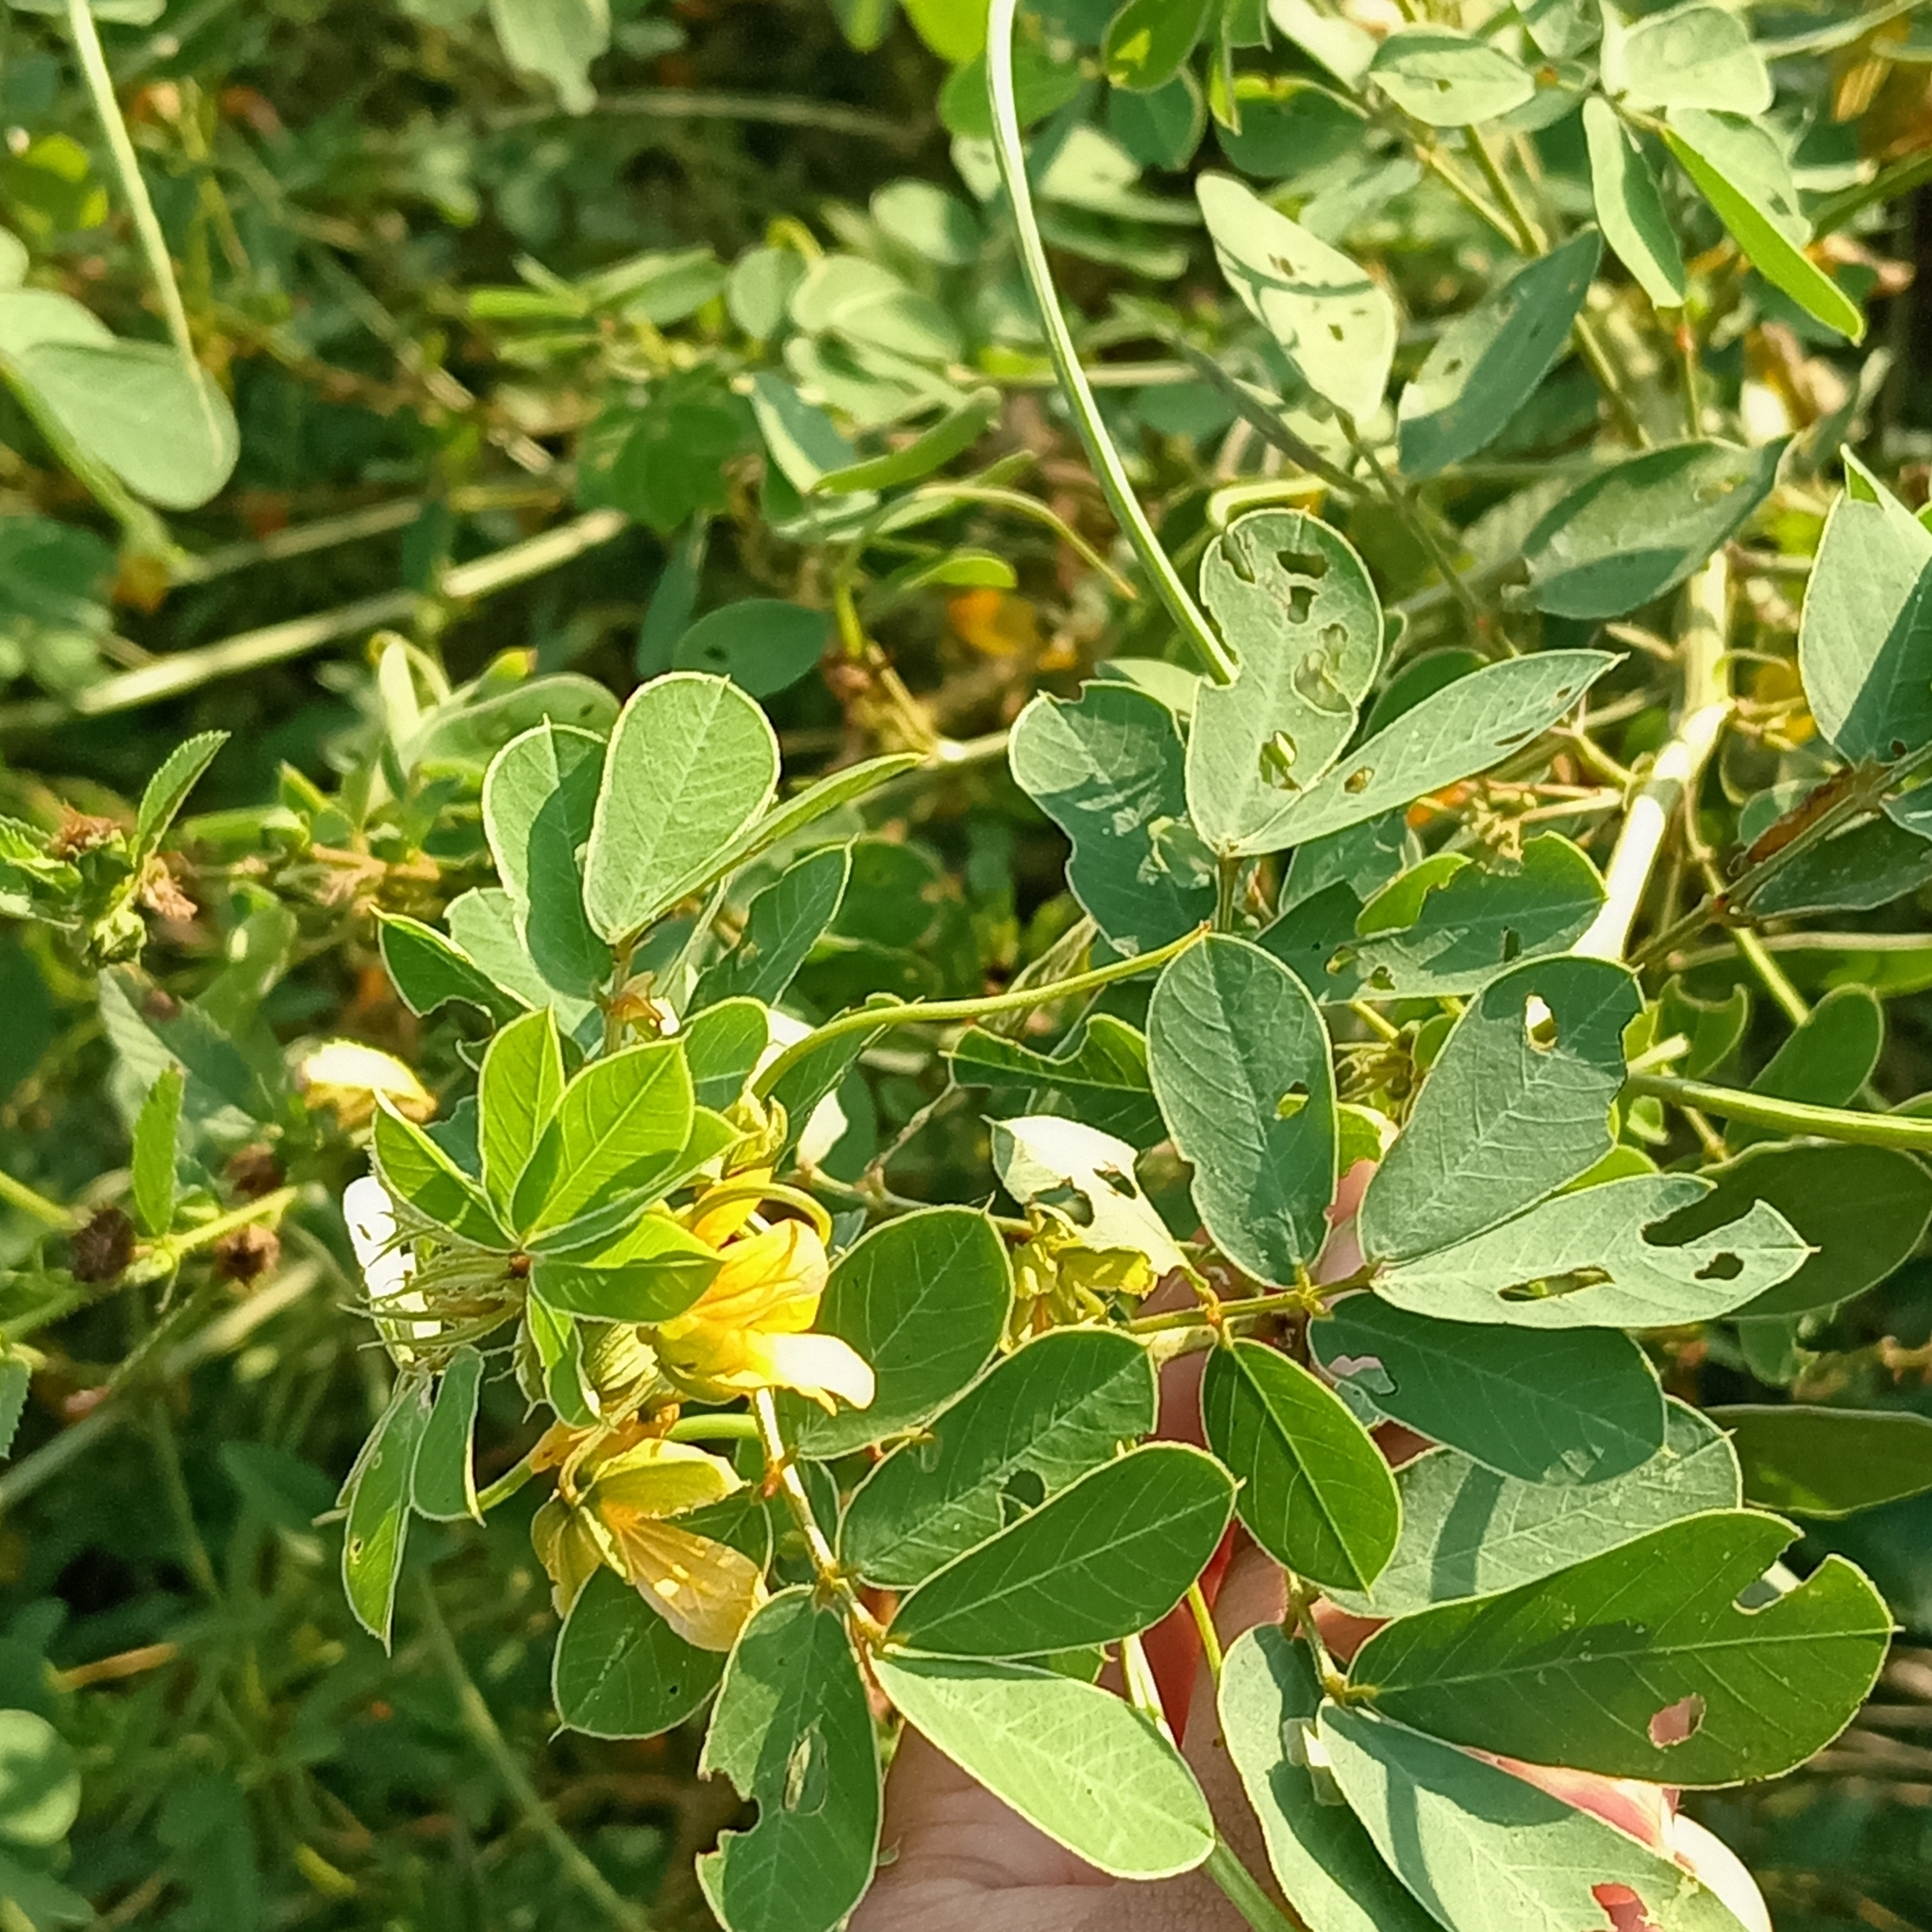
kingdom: Plantae
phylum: Tracheophyta
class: Magnoliopsida
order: Fabales
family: Fabaceae
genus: Senna
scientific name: Senna obtusifolia
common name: Java-bean
